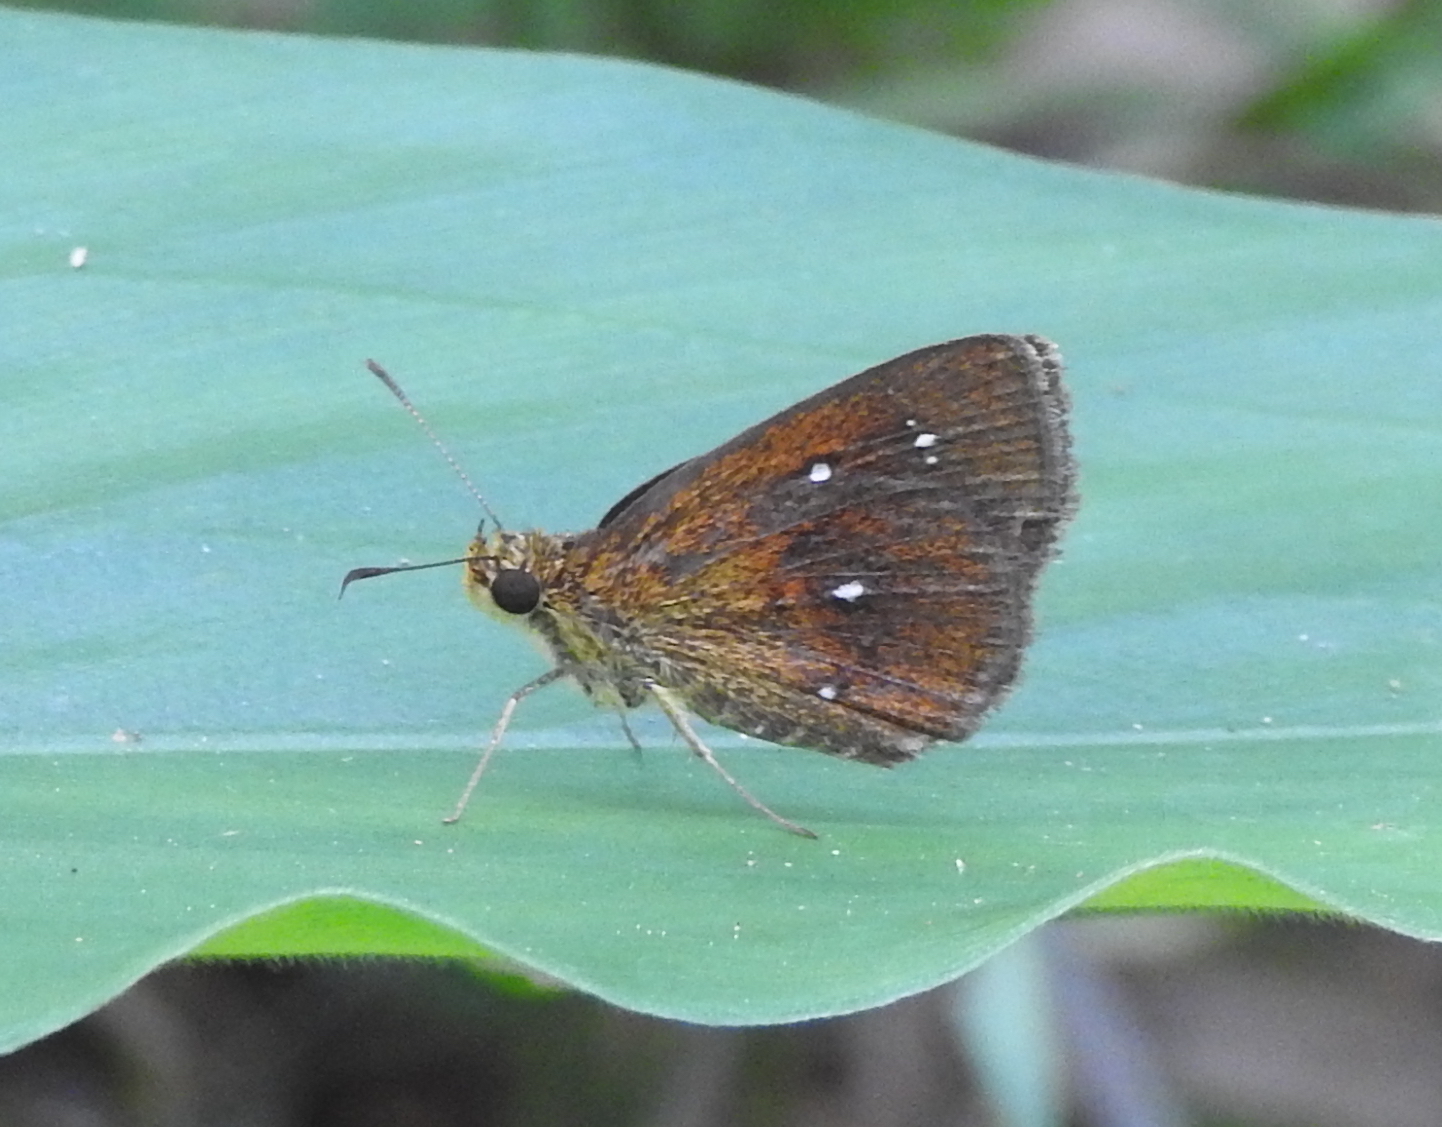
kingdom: Animalia
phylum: Arthropoda
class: Insecta
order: Lepidoptera
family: Hesperiidae
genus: Iambrix
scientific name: Iambrix salsala
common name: Chestnut bob
